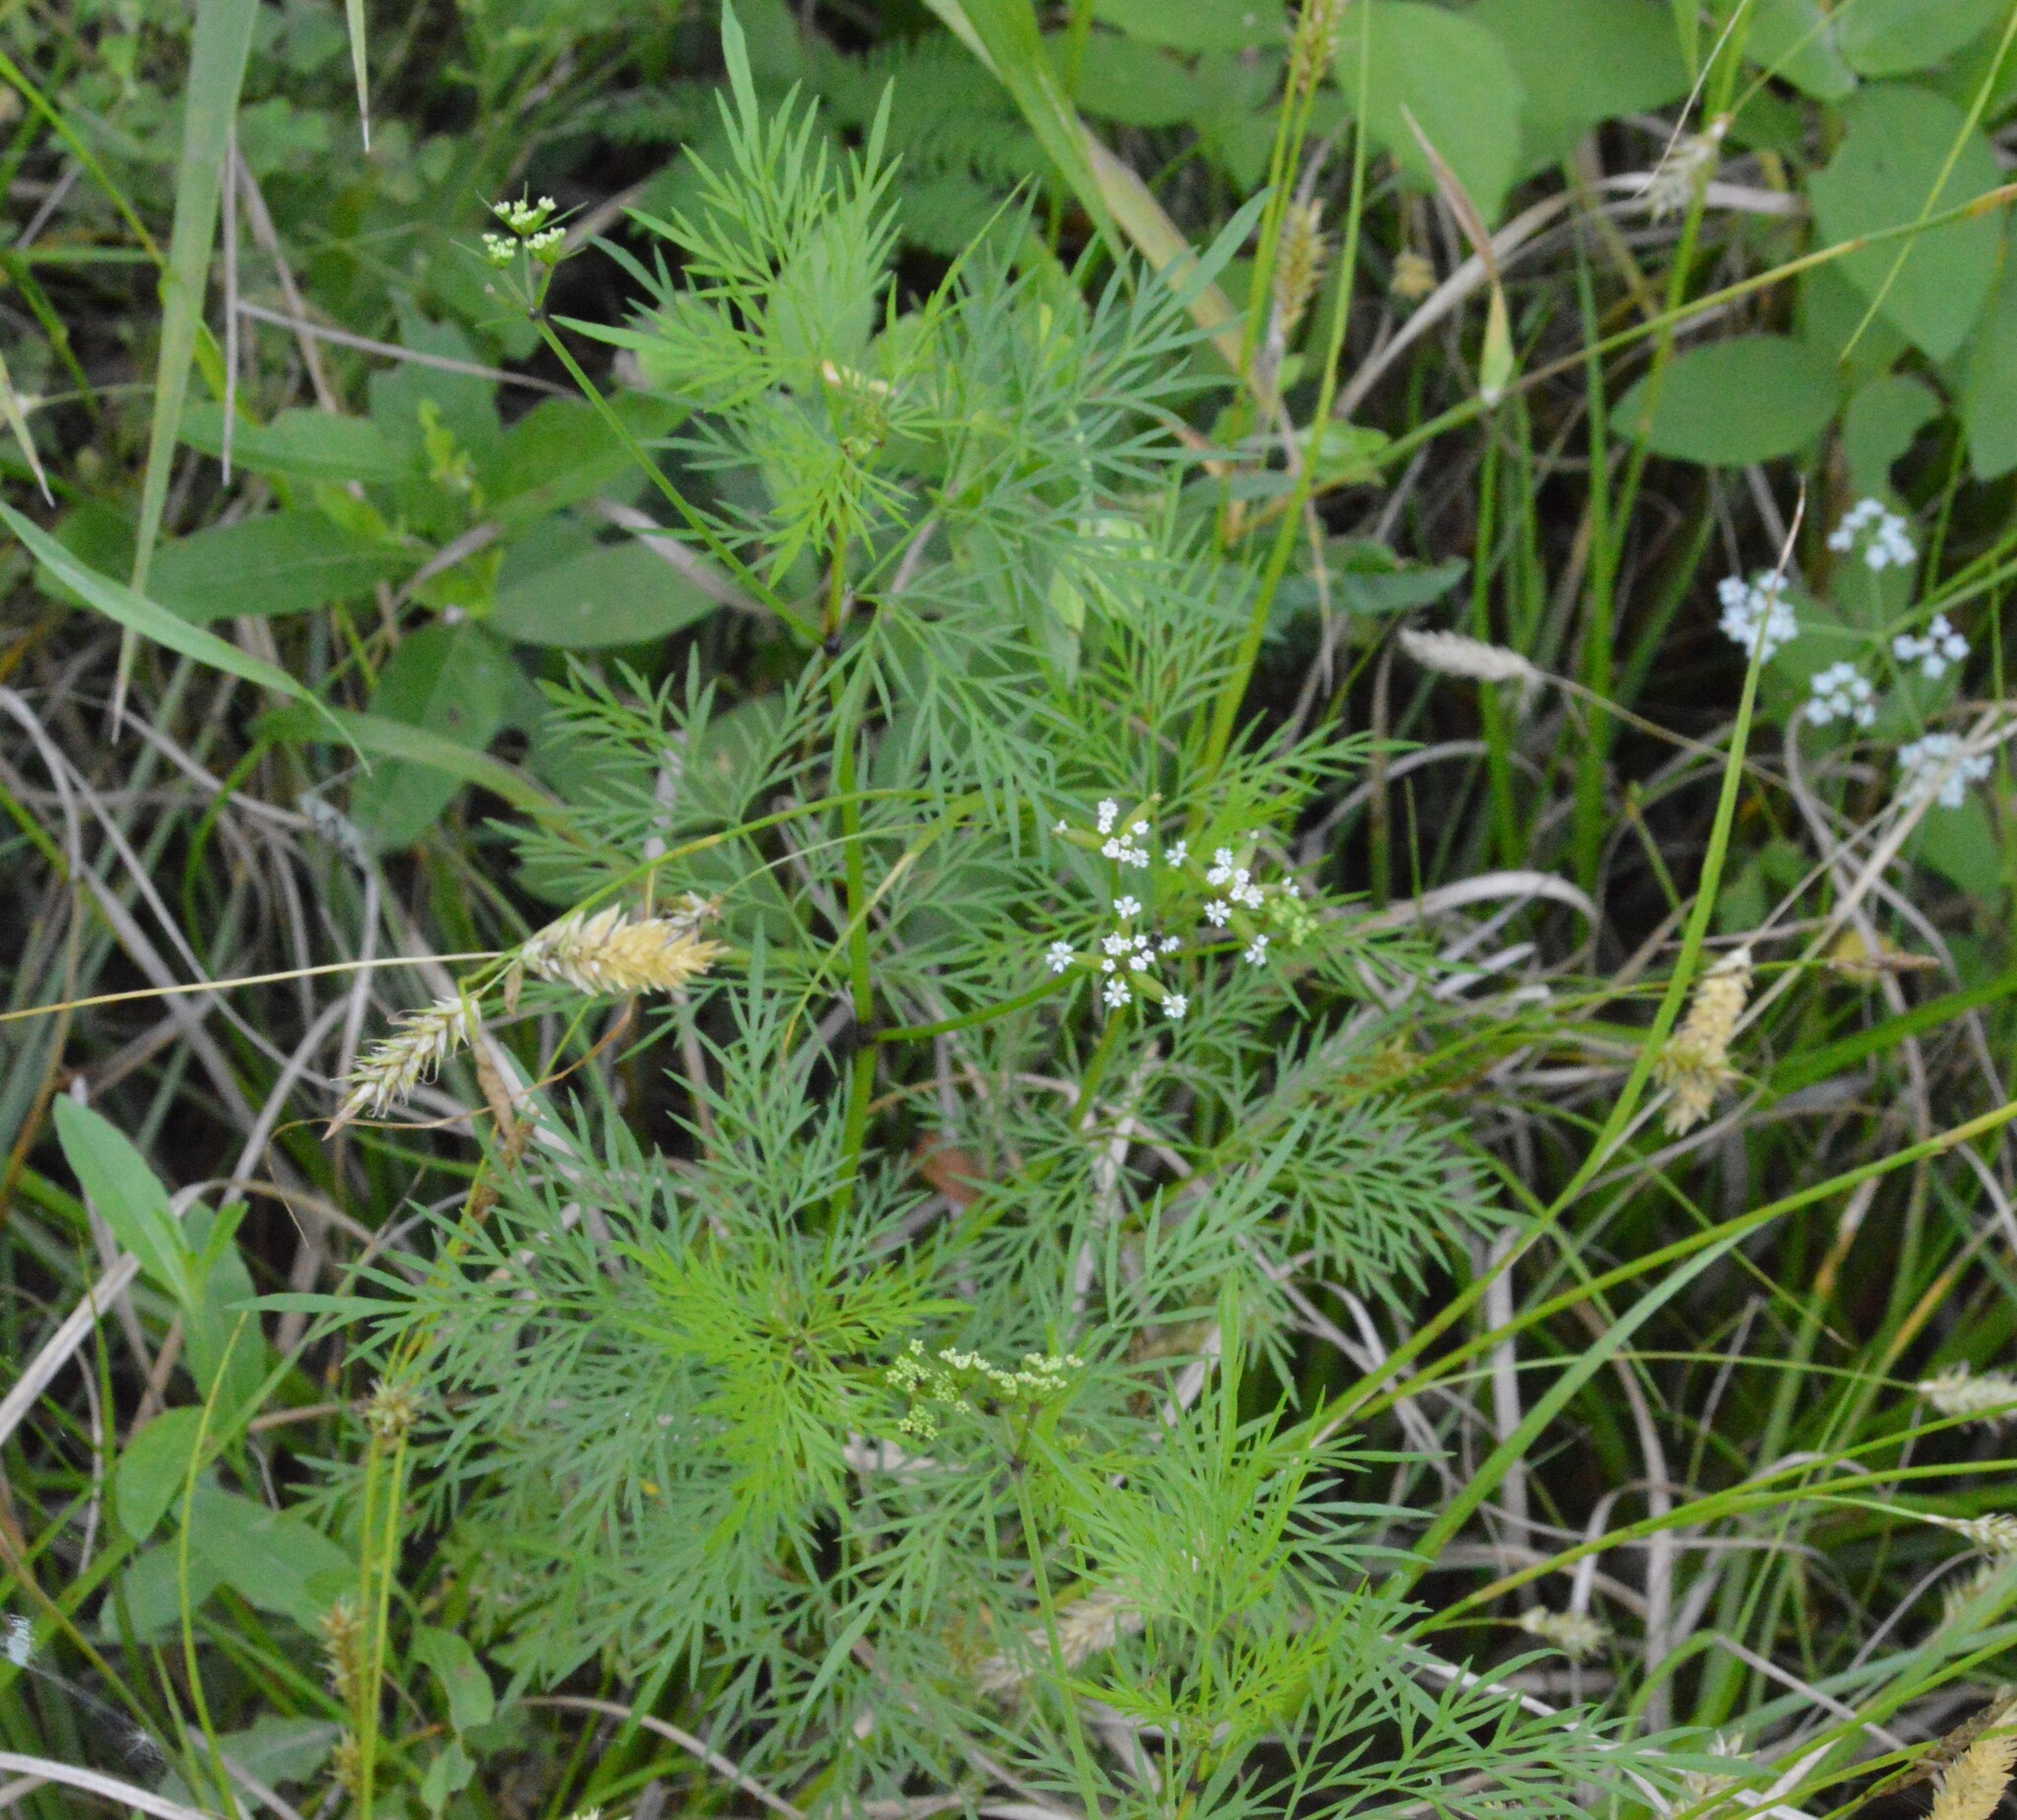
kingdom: Plantae
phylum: Tracheophyta
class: Magnoliopsida
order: Apiales
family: Apiaceae
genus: Trepocarpus
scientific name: Trepocarpus aethusae
